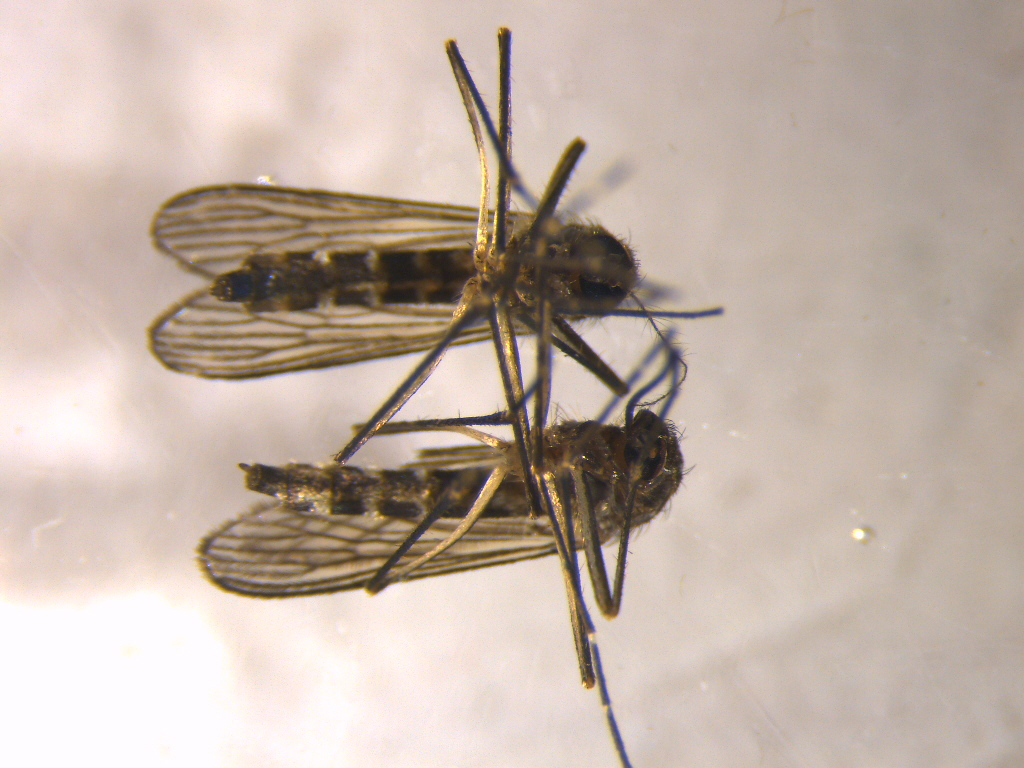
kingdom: Animalia
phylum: Arthropoda
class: Insecta
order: Diptera
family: Culicidae
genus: Aedes
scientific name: Aedes antipodeus
